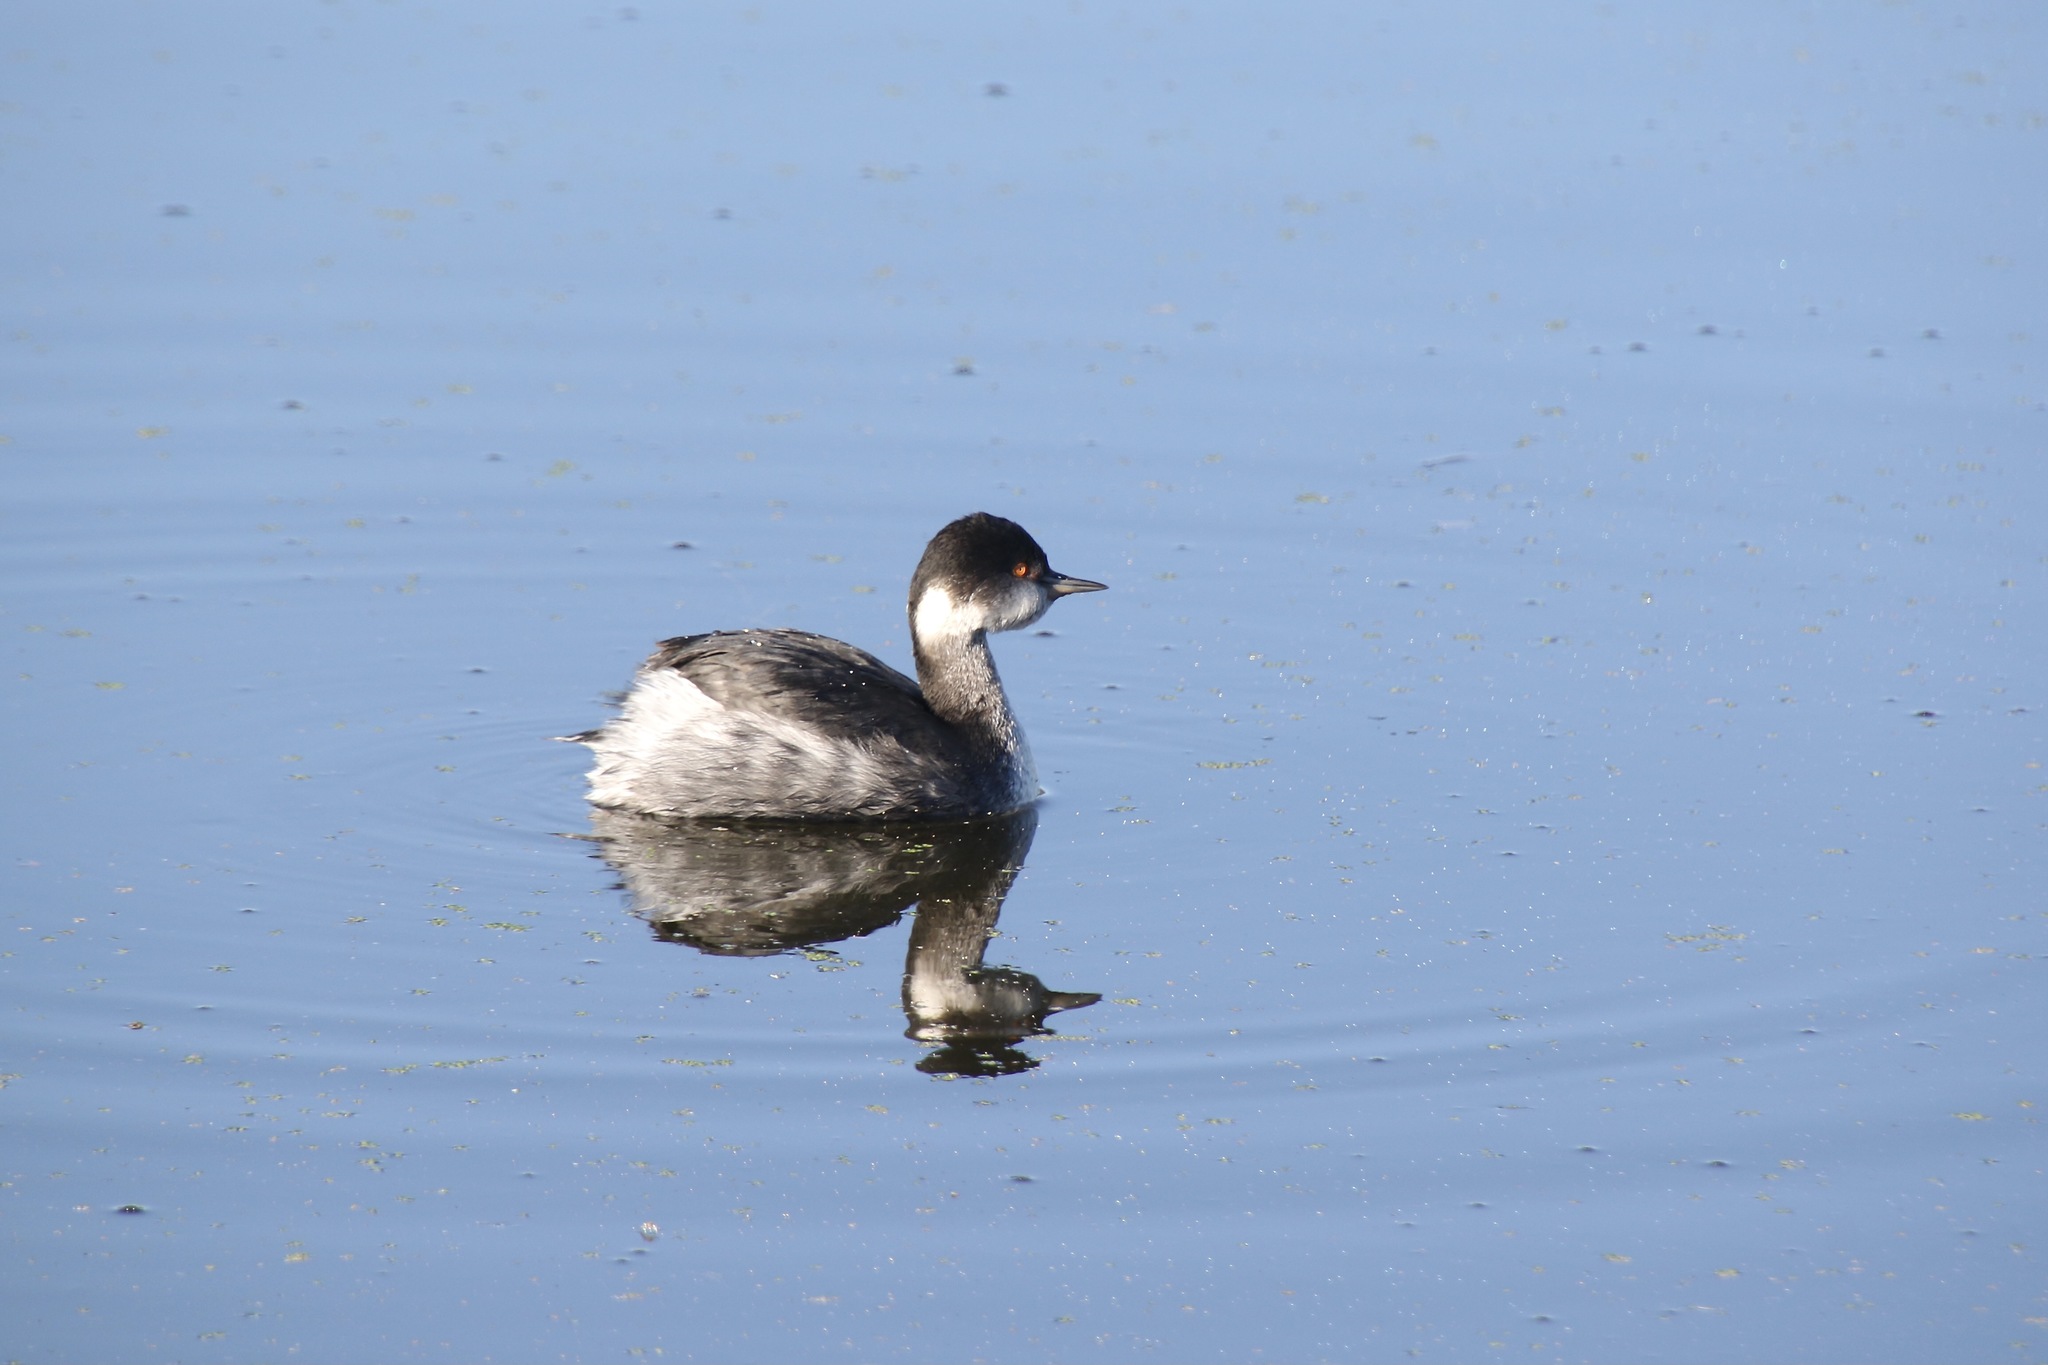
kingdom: Animalia
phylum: Chordata
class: Aves
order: Podicipediformes
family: Podicipedidae
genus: Podiceps
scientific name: Podiceps nigricollis
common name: Black-necked grebe
